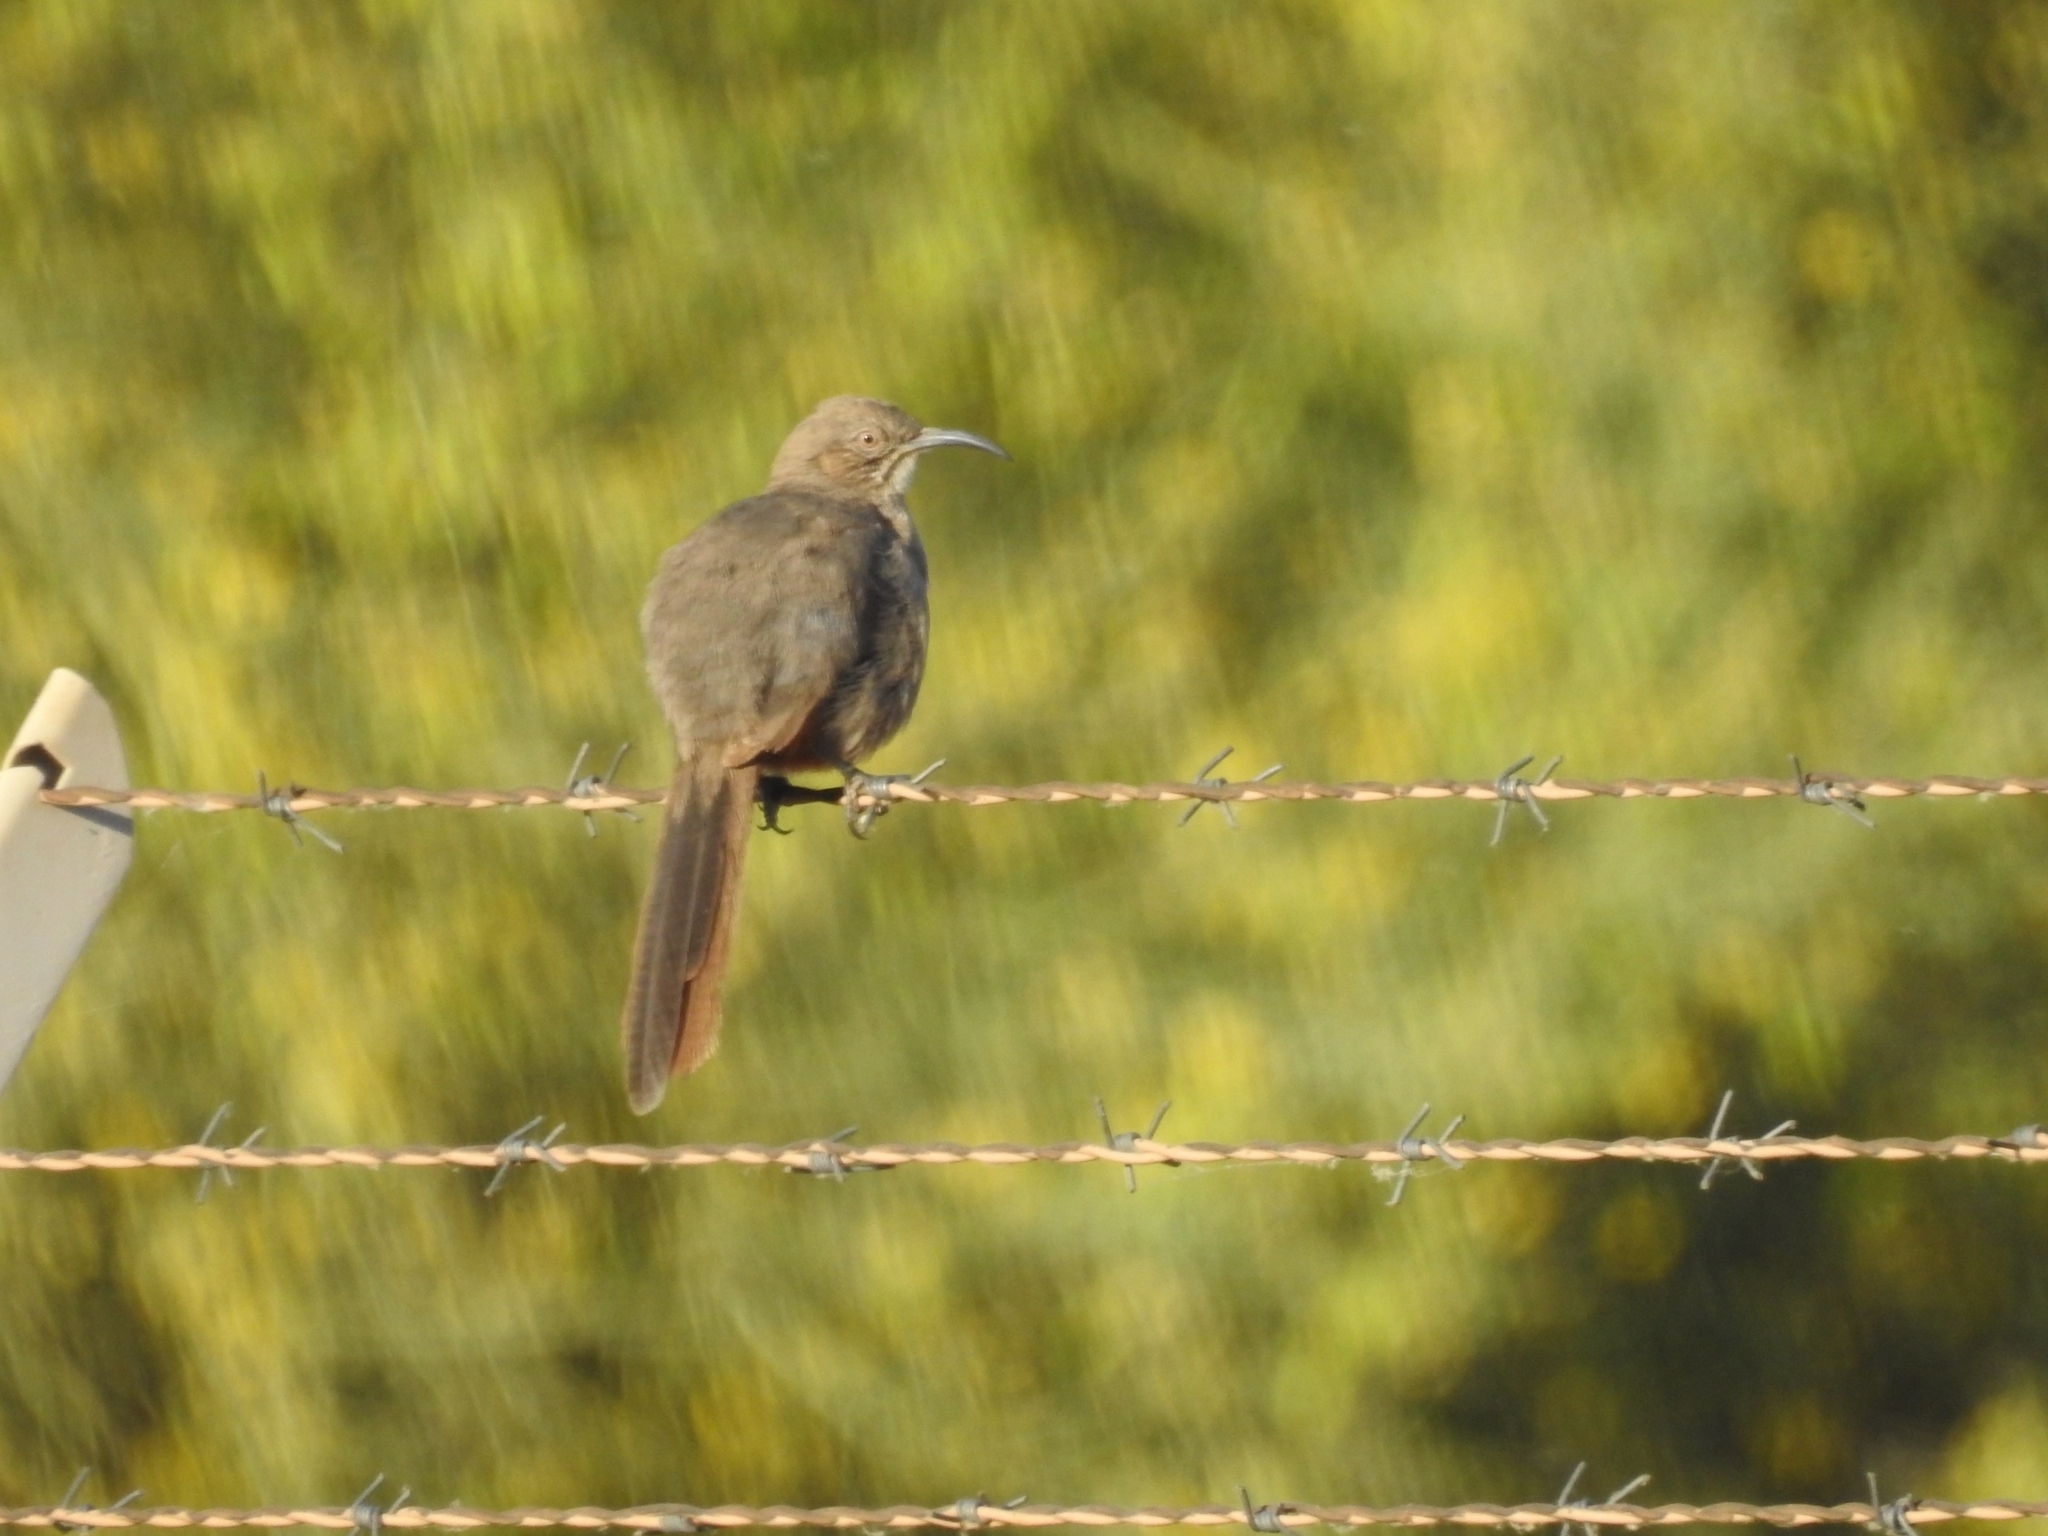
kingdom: Animalia
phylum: Chordata
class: Aves
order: Passeriformes
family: Mimidae
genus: Toxostoma
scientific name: Toxostoma crissale
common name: Crissal thrasher
